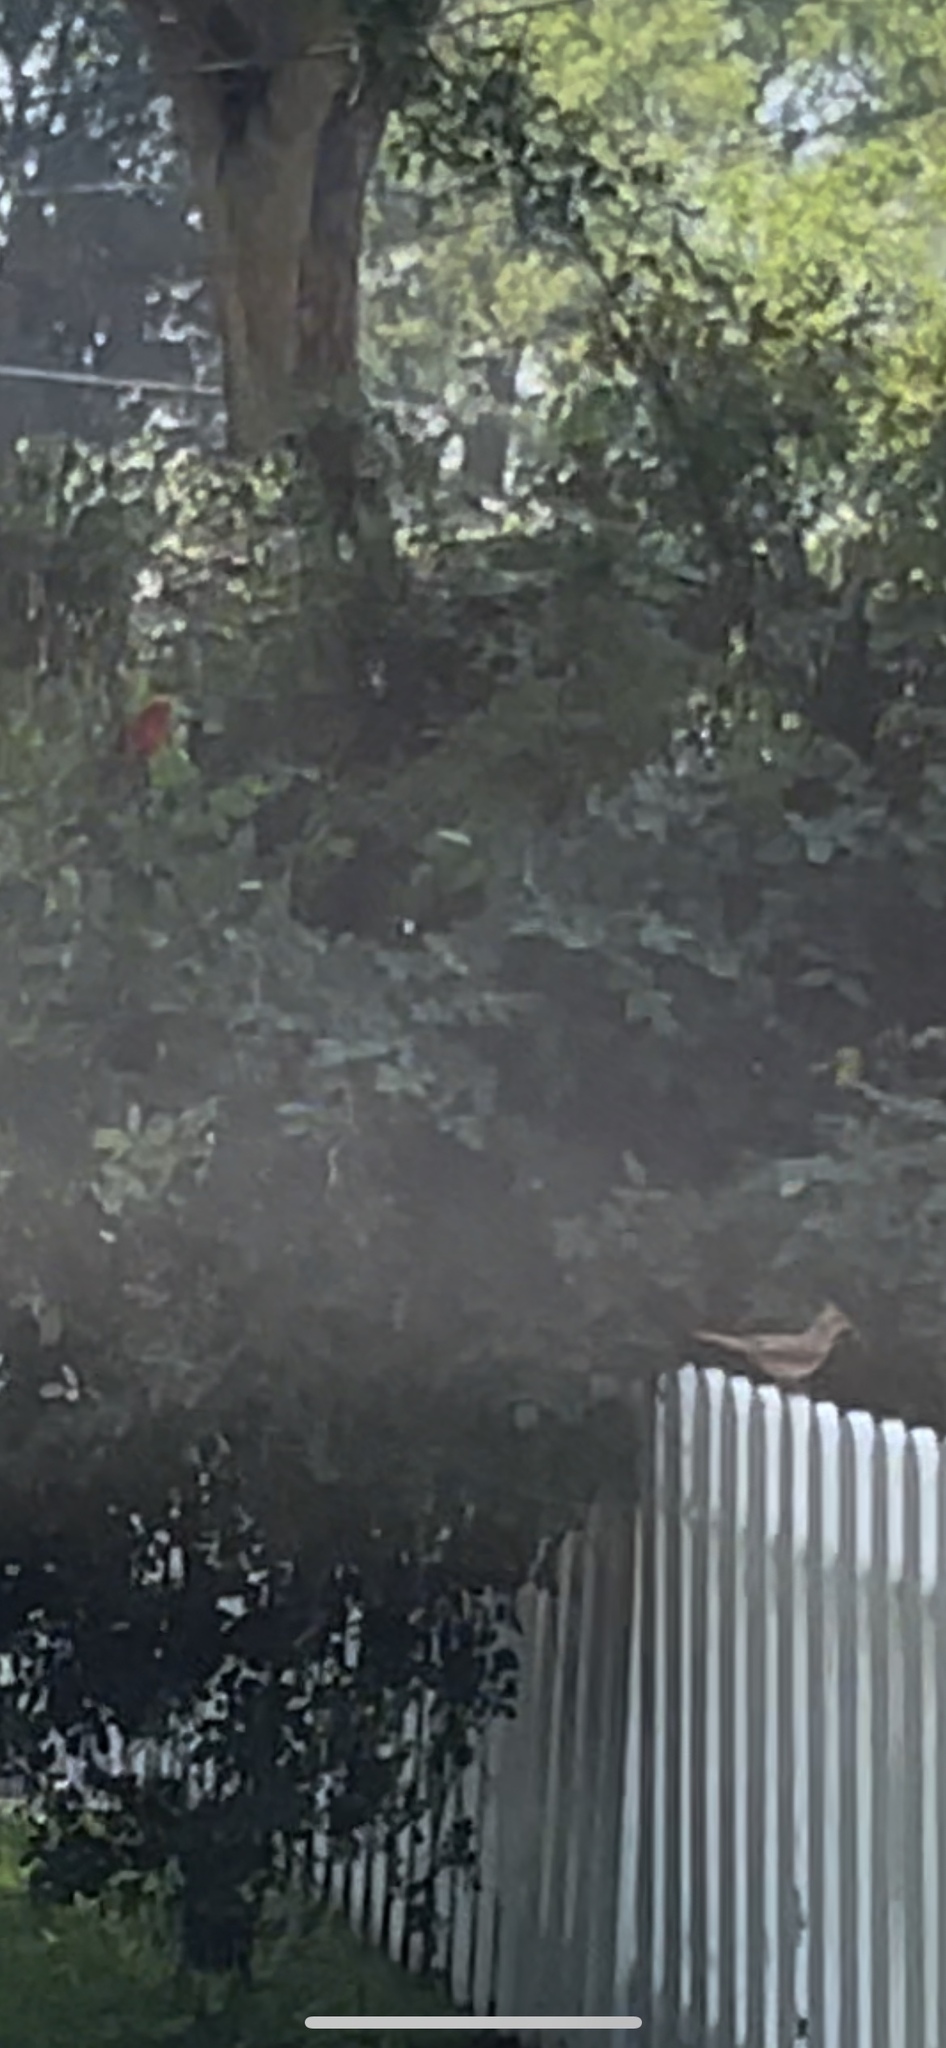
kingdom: Animalia
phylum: Chordata
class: Aves
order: Passeriformes
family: Cardinalidae
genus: Cardinalis
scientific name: Cardinalis cardinalis
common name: Northern cardinal
